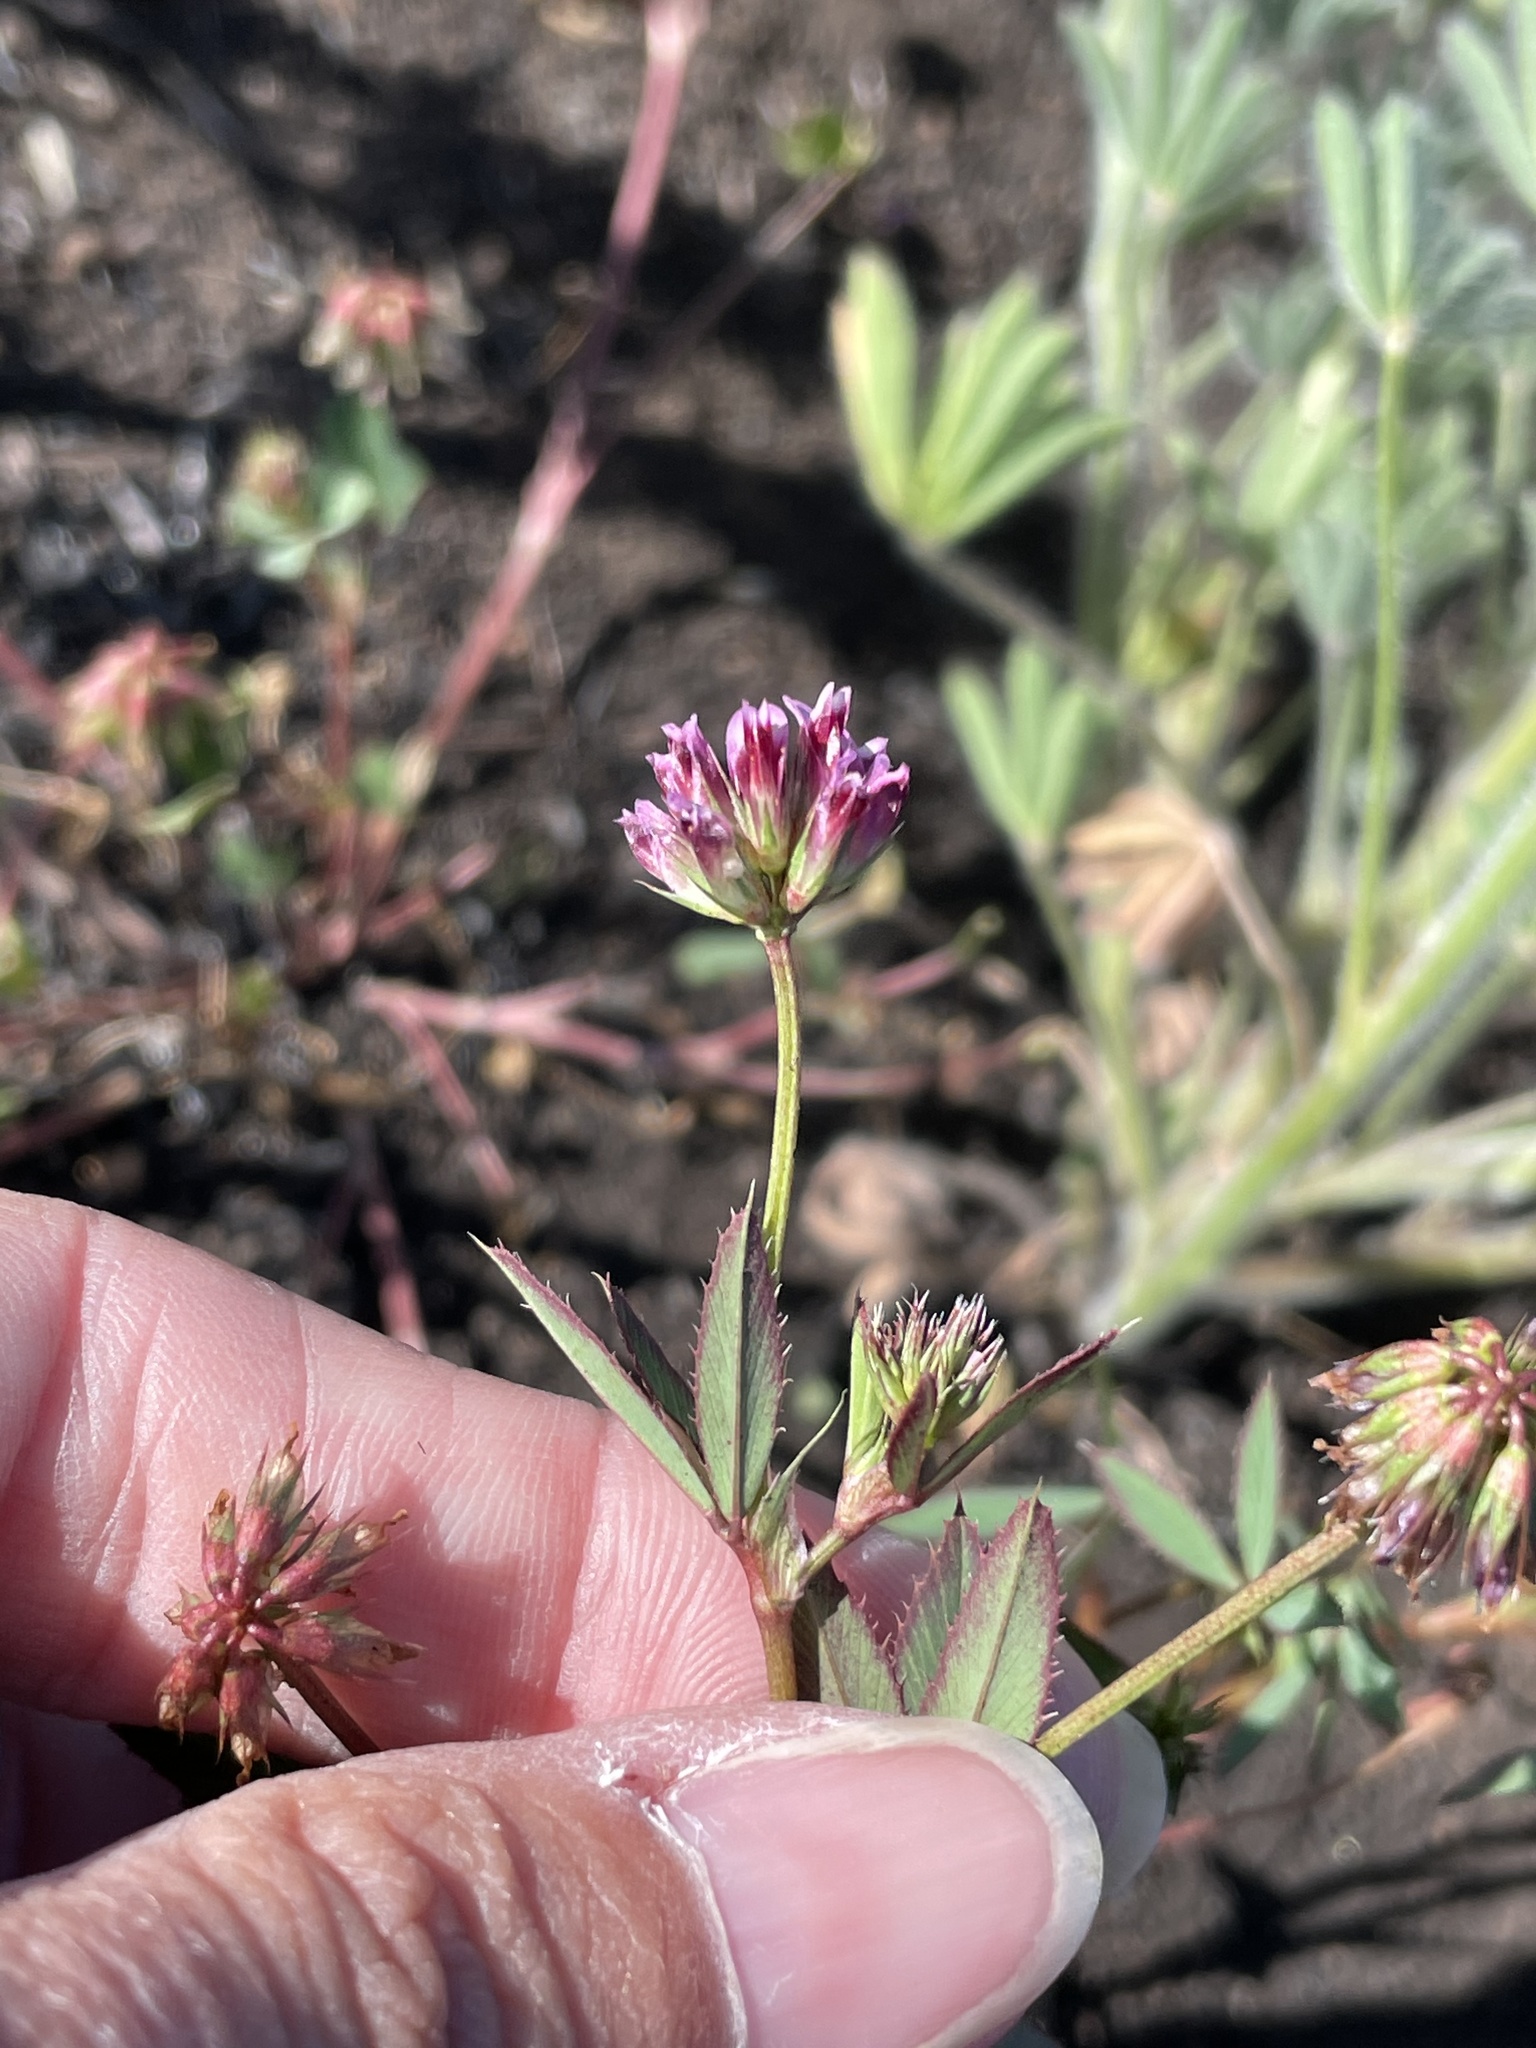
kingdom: Plantae
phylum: Tracheophyta
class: Magnoliopsida
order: Fabales
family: Fabaceae
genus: Trifolium
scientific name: Trifolium palmeri
